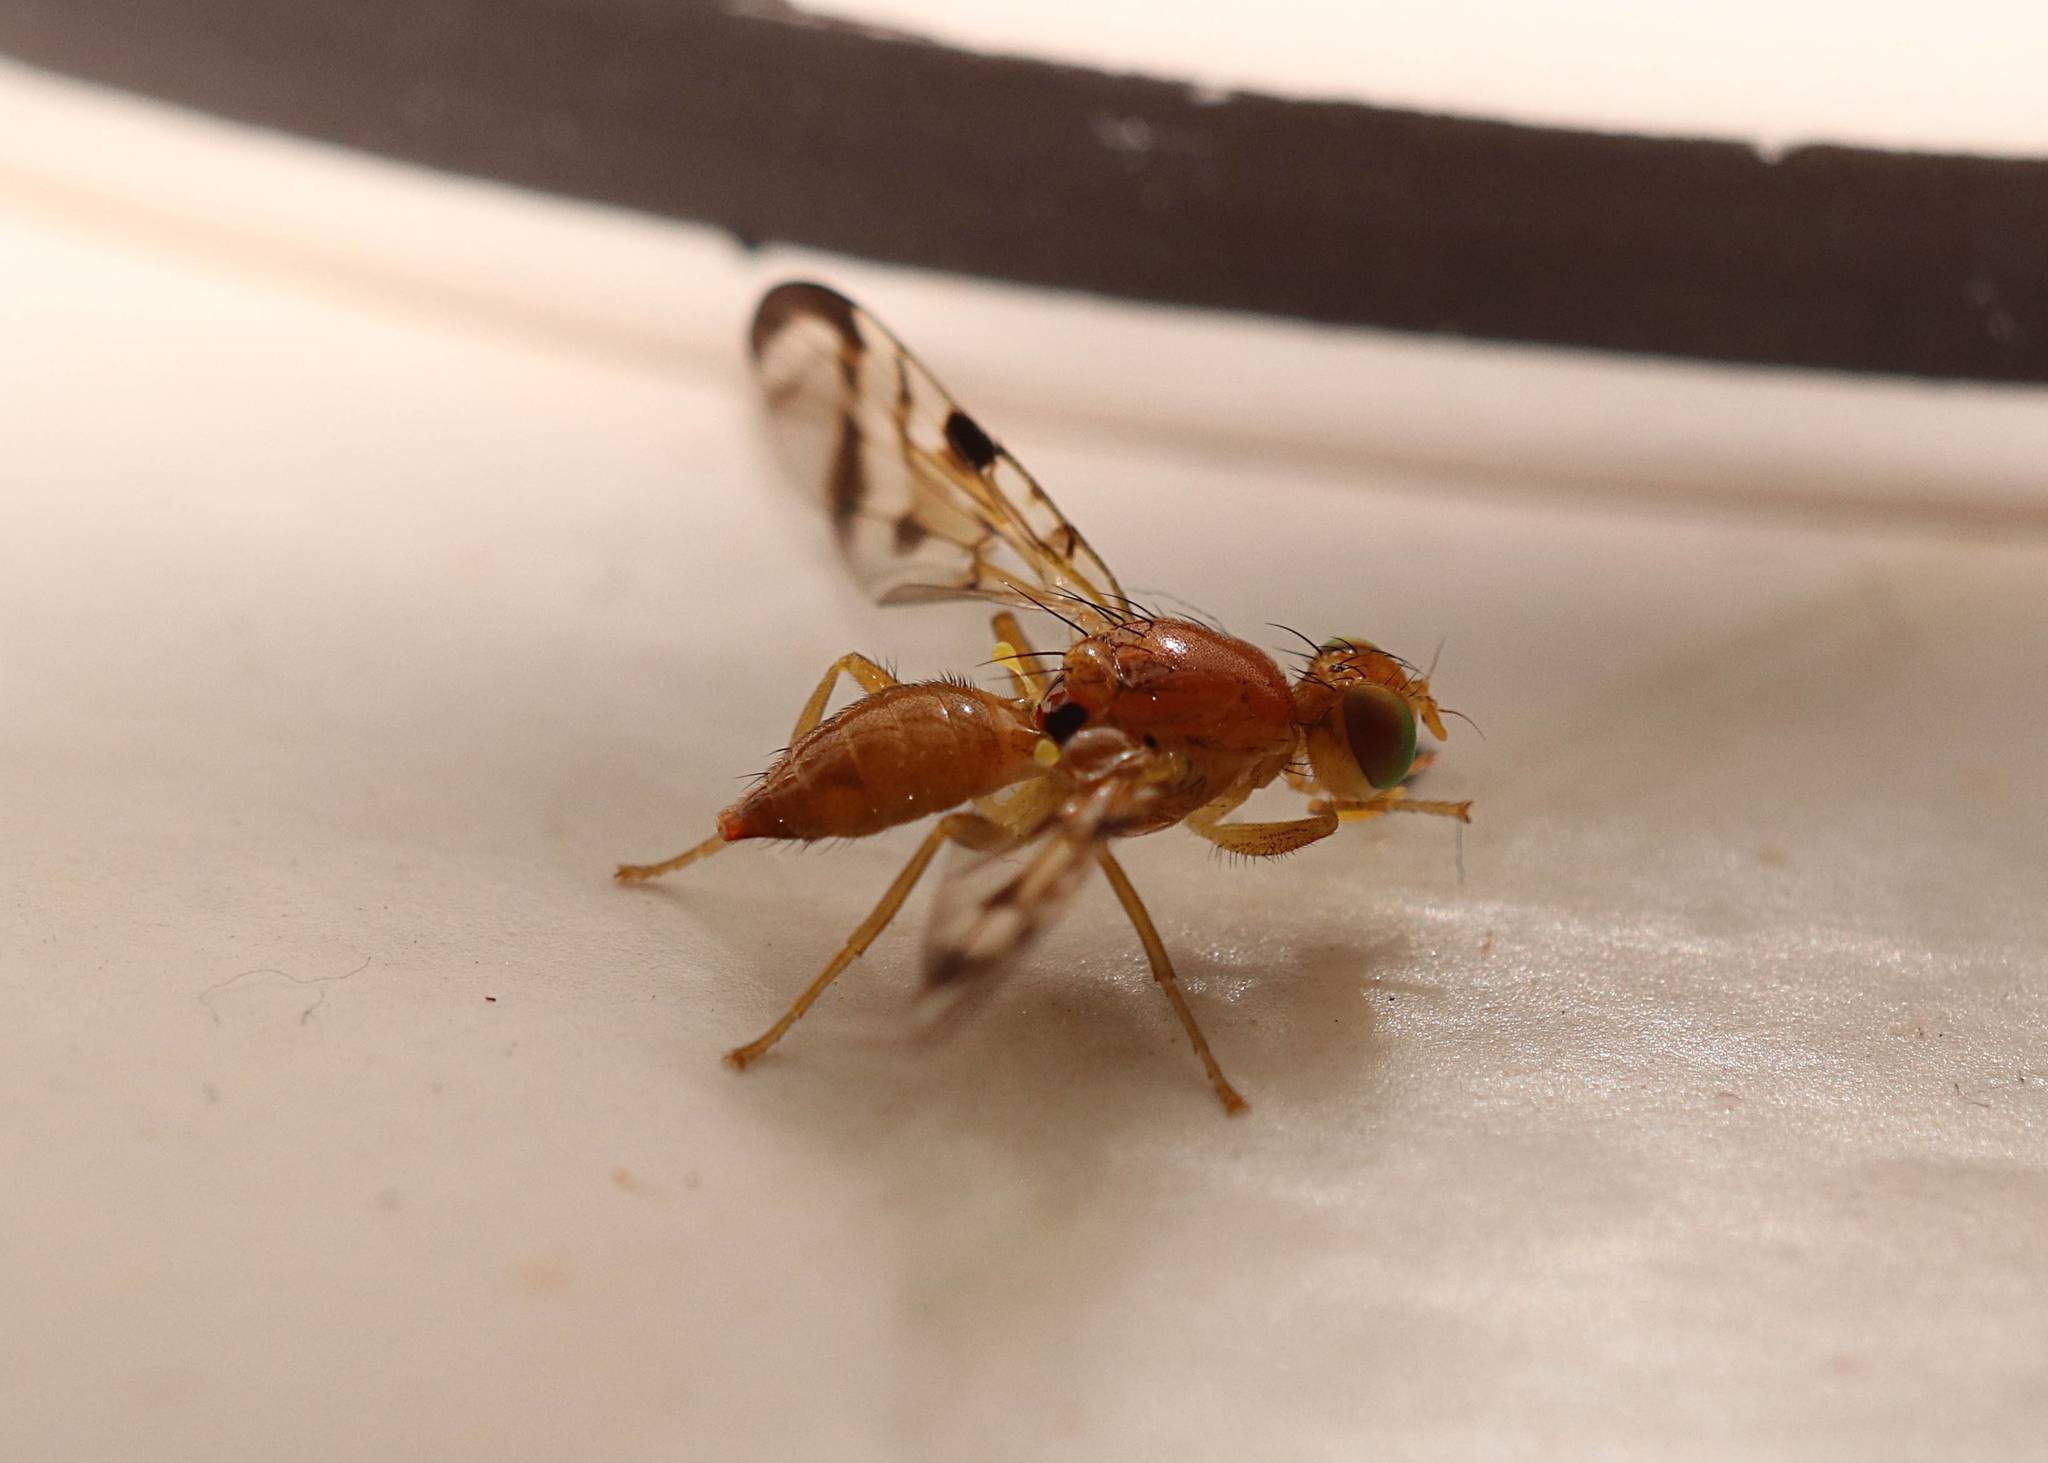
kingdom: Animalia
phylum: Arthropoda
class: Insecta
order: Diptera
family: Tephritidae
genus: Acidia
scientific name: Acidia cognata
